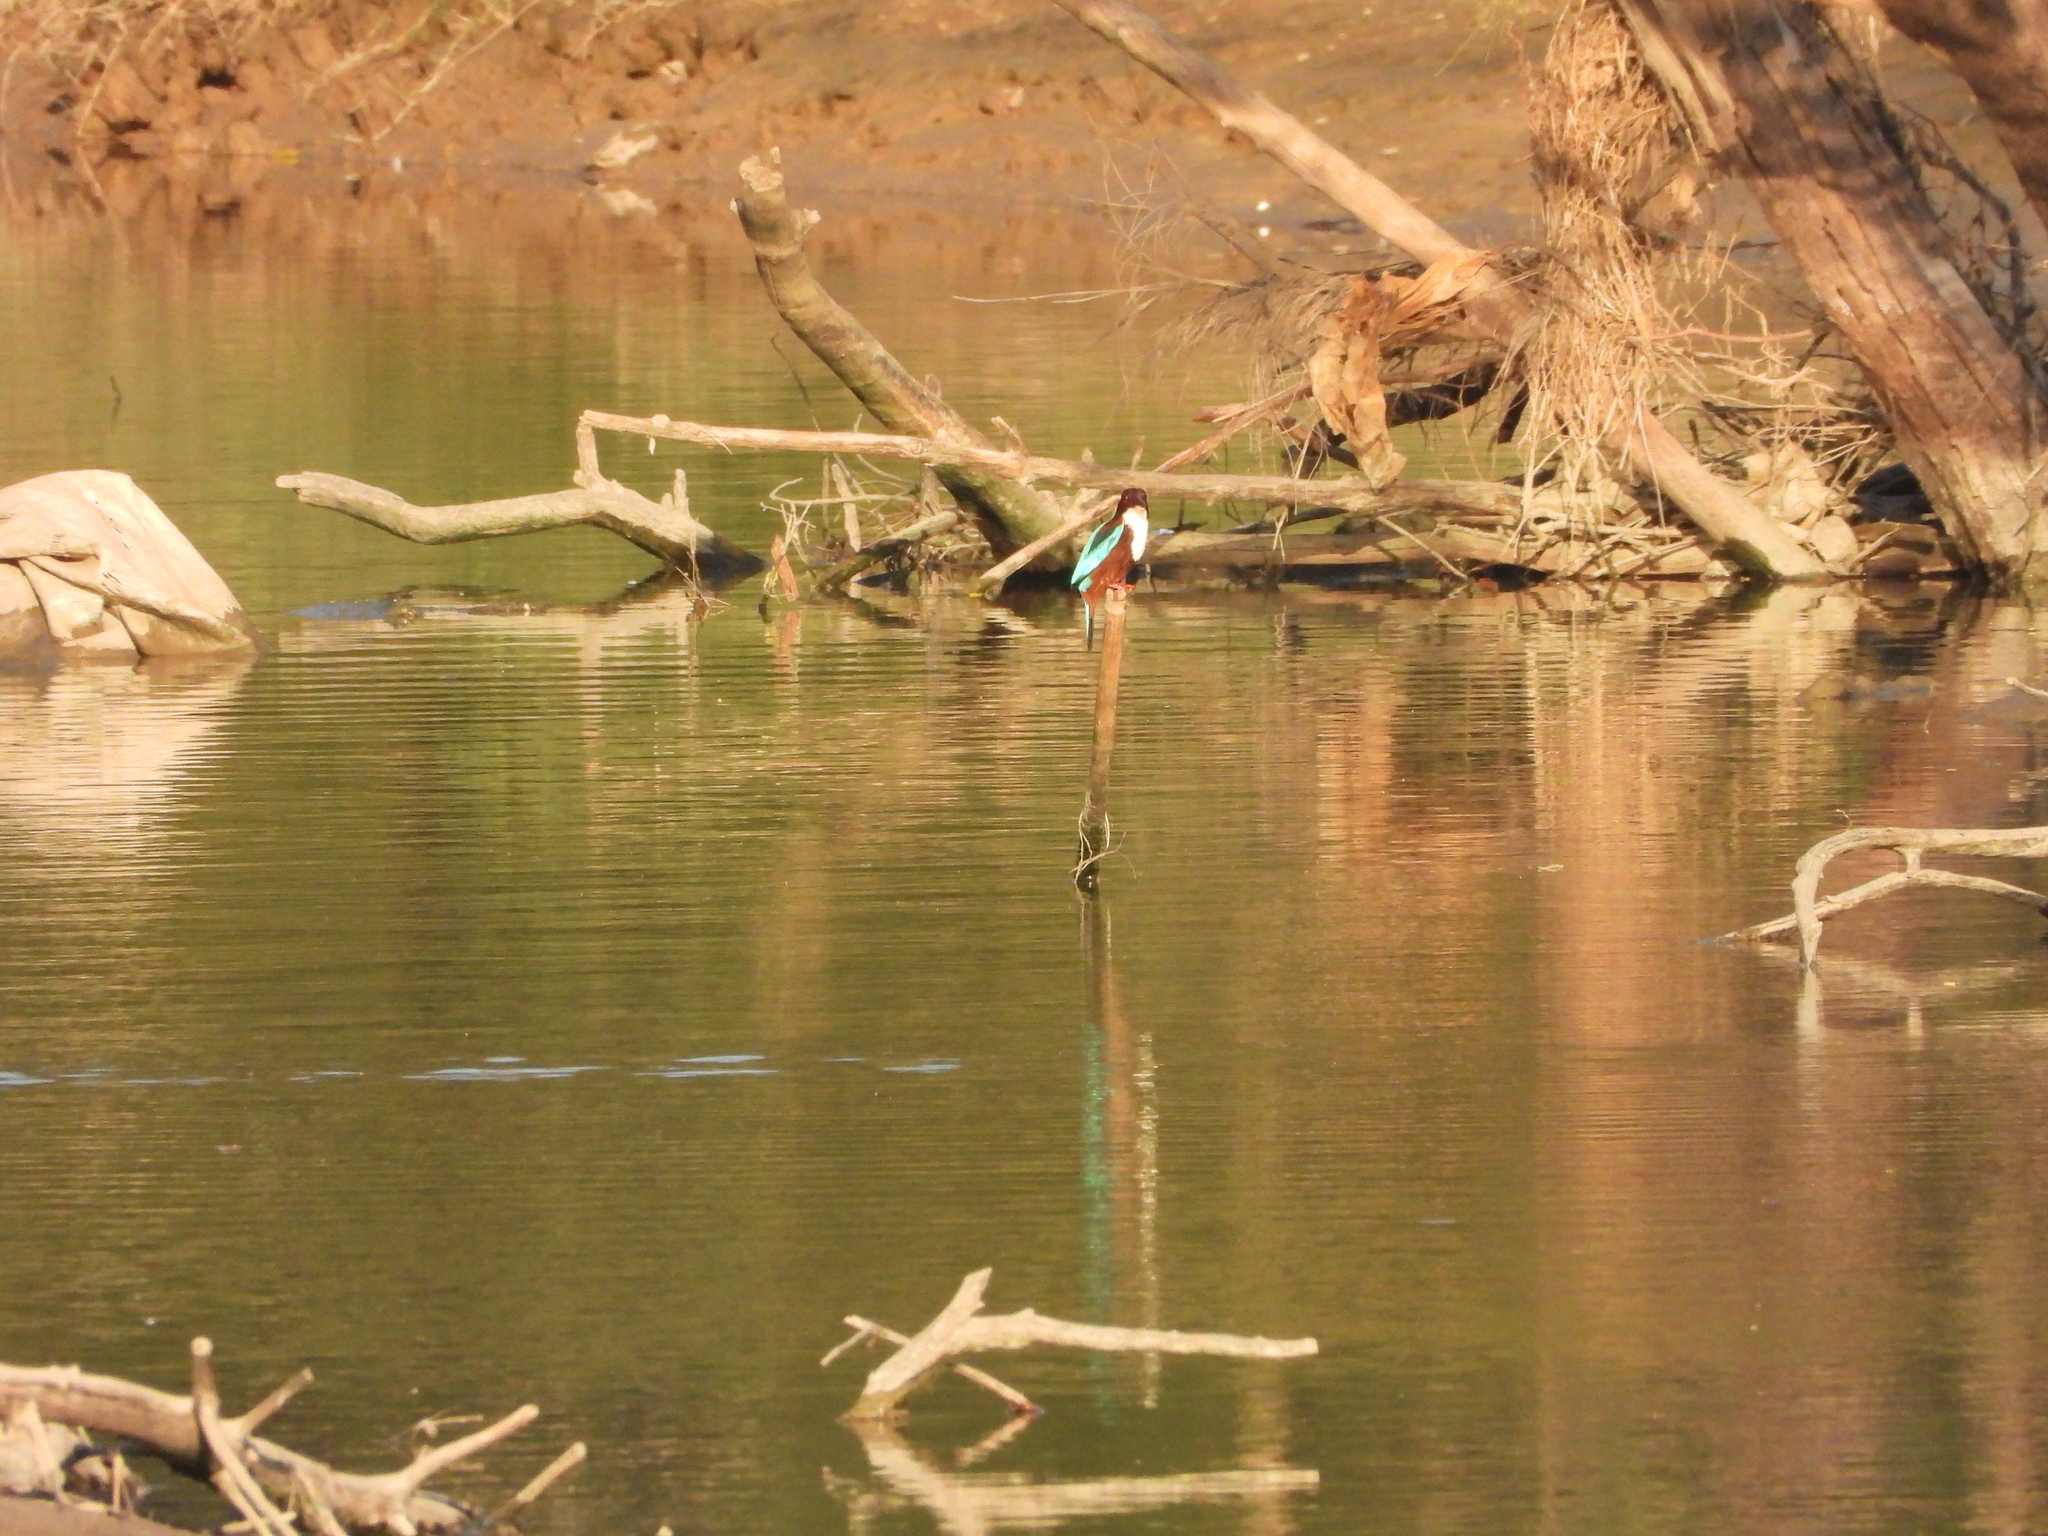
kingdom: Animalia
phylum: Chordata
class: Aves
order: Coraciiformes
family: Alcedinidae
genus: Halcyon
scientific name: Halcyon smyrnensis
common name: White-throated kingfisher
